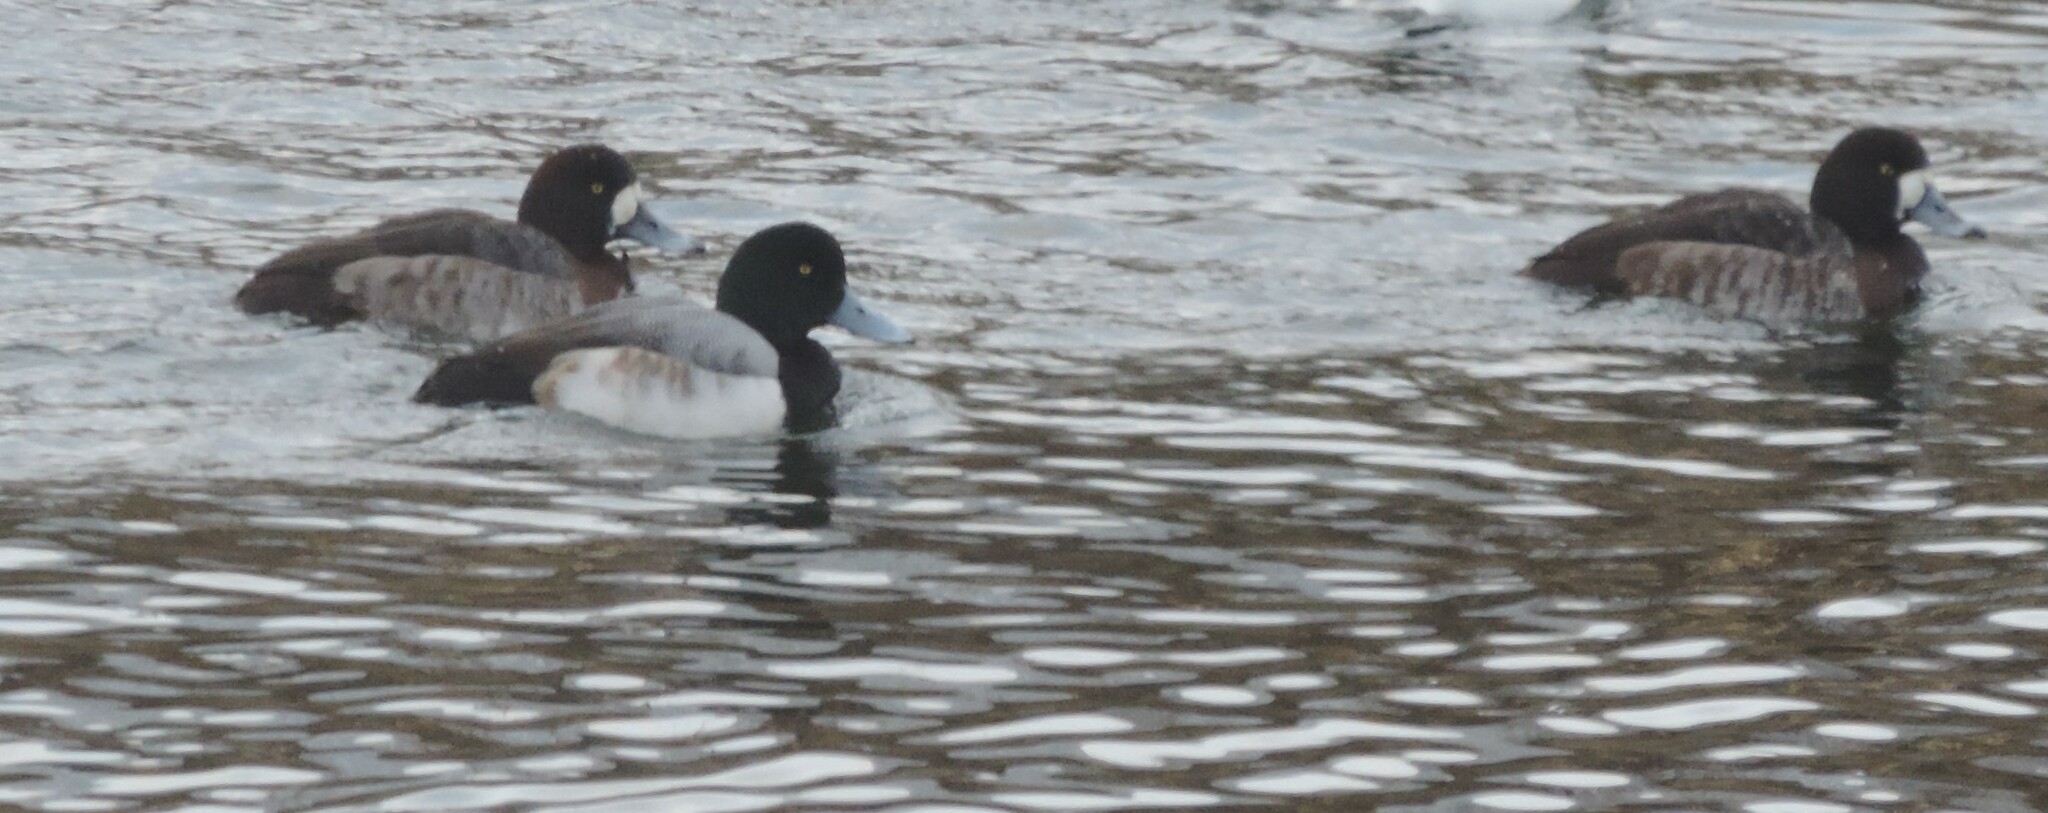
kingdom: Animalia
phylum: Chordata
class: Aves
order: Anseriformes
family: Anatidae
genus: Aythya
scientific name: Aythya marila
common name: Greater scaup
